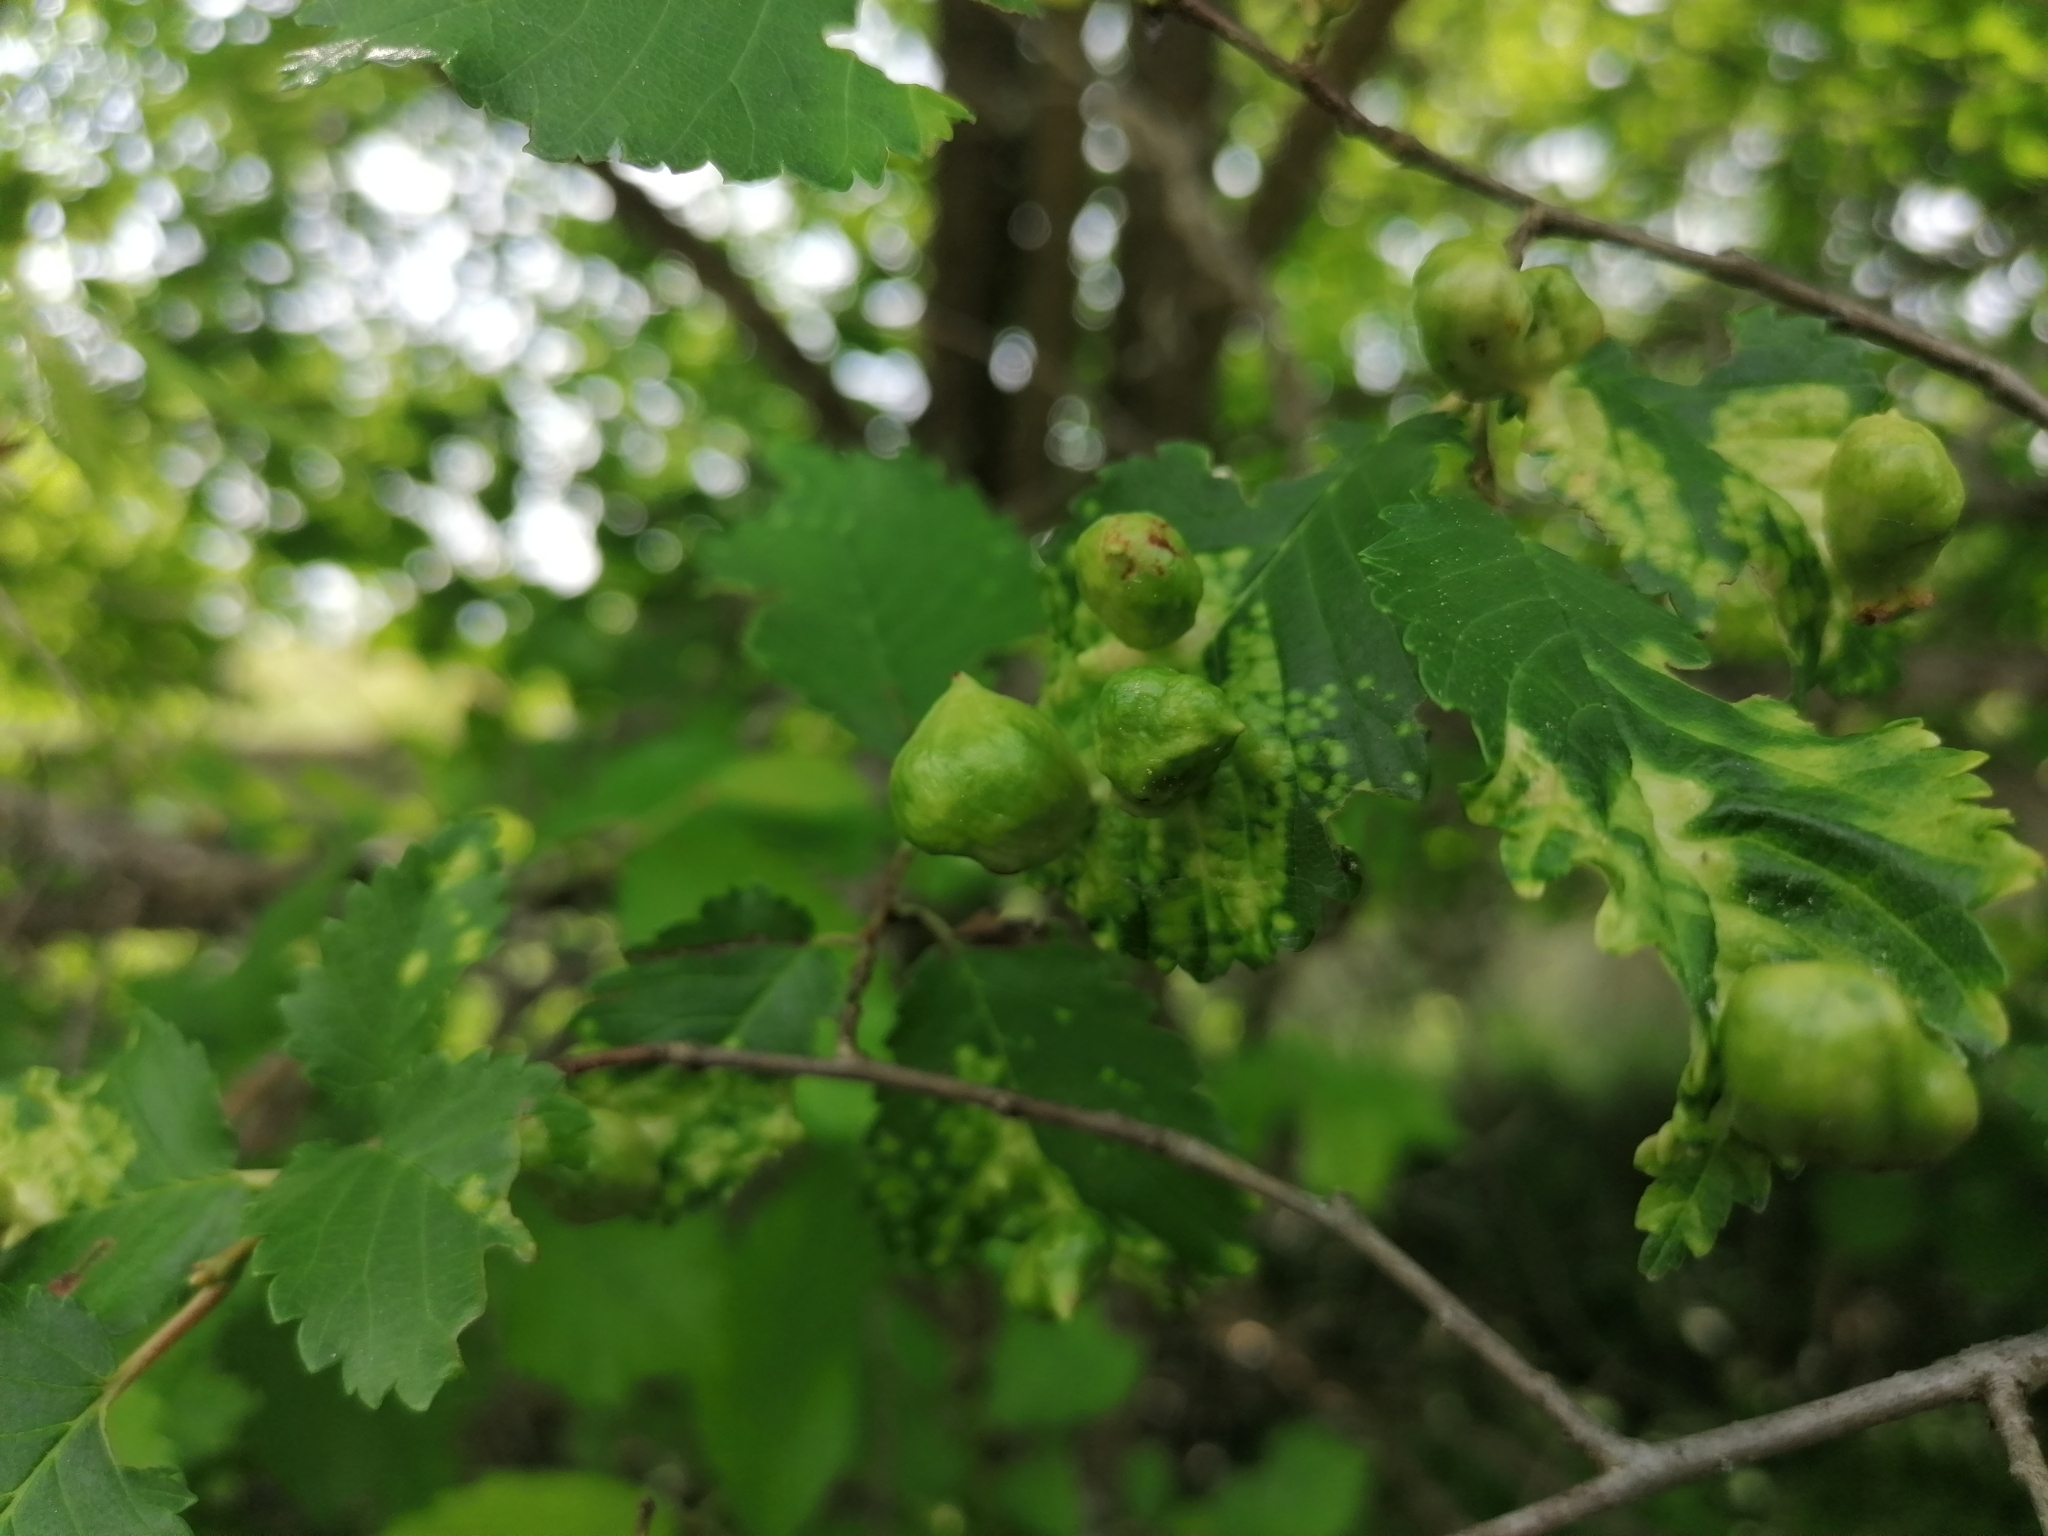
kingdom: Animalia
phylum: Arthropoda
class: Insecta
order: Hemiptera
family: Aphididae
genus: Tetraneura
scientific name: Tetraneura ulmi
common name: Aphid
